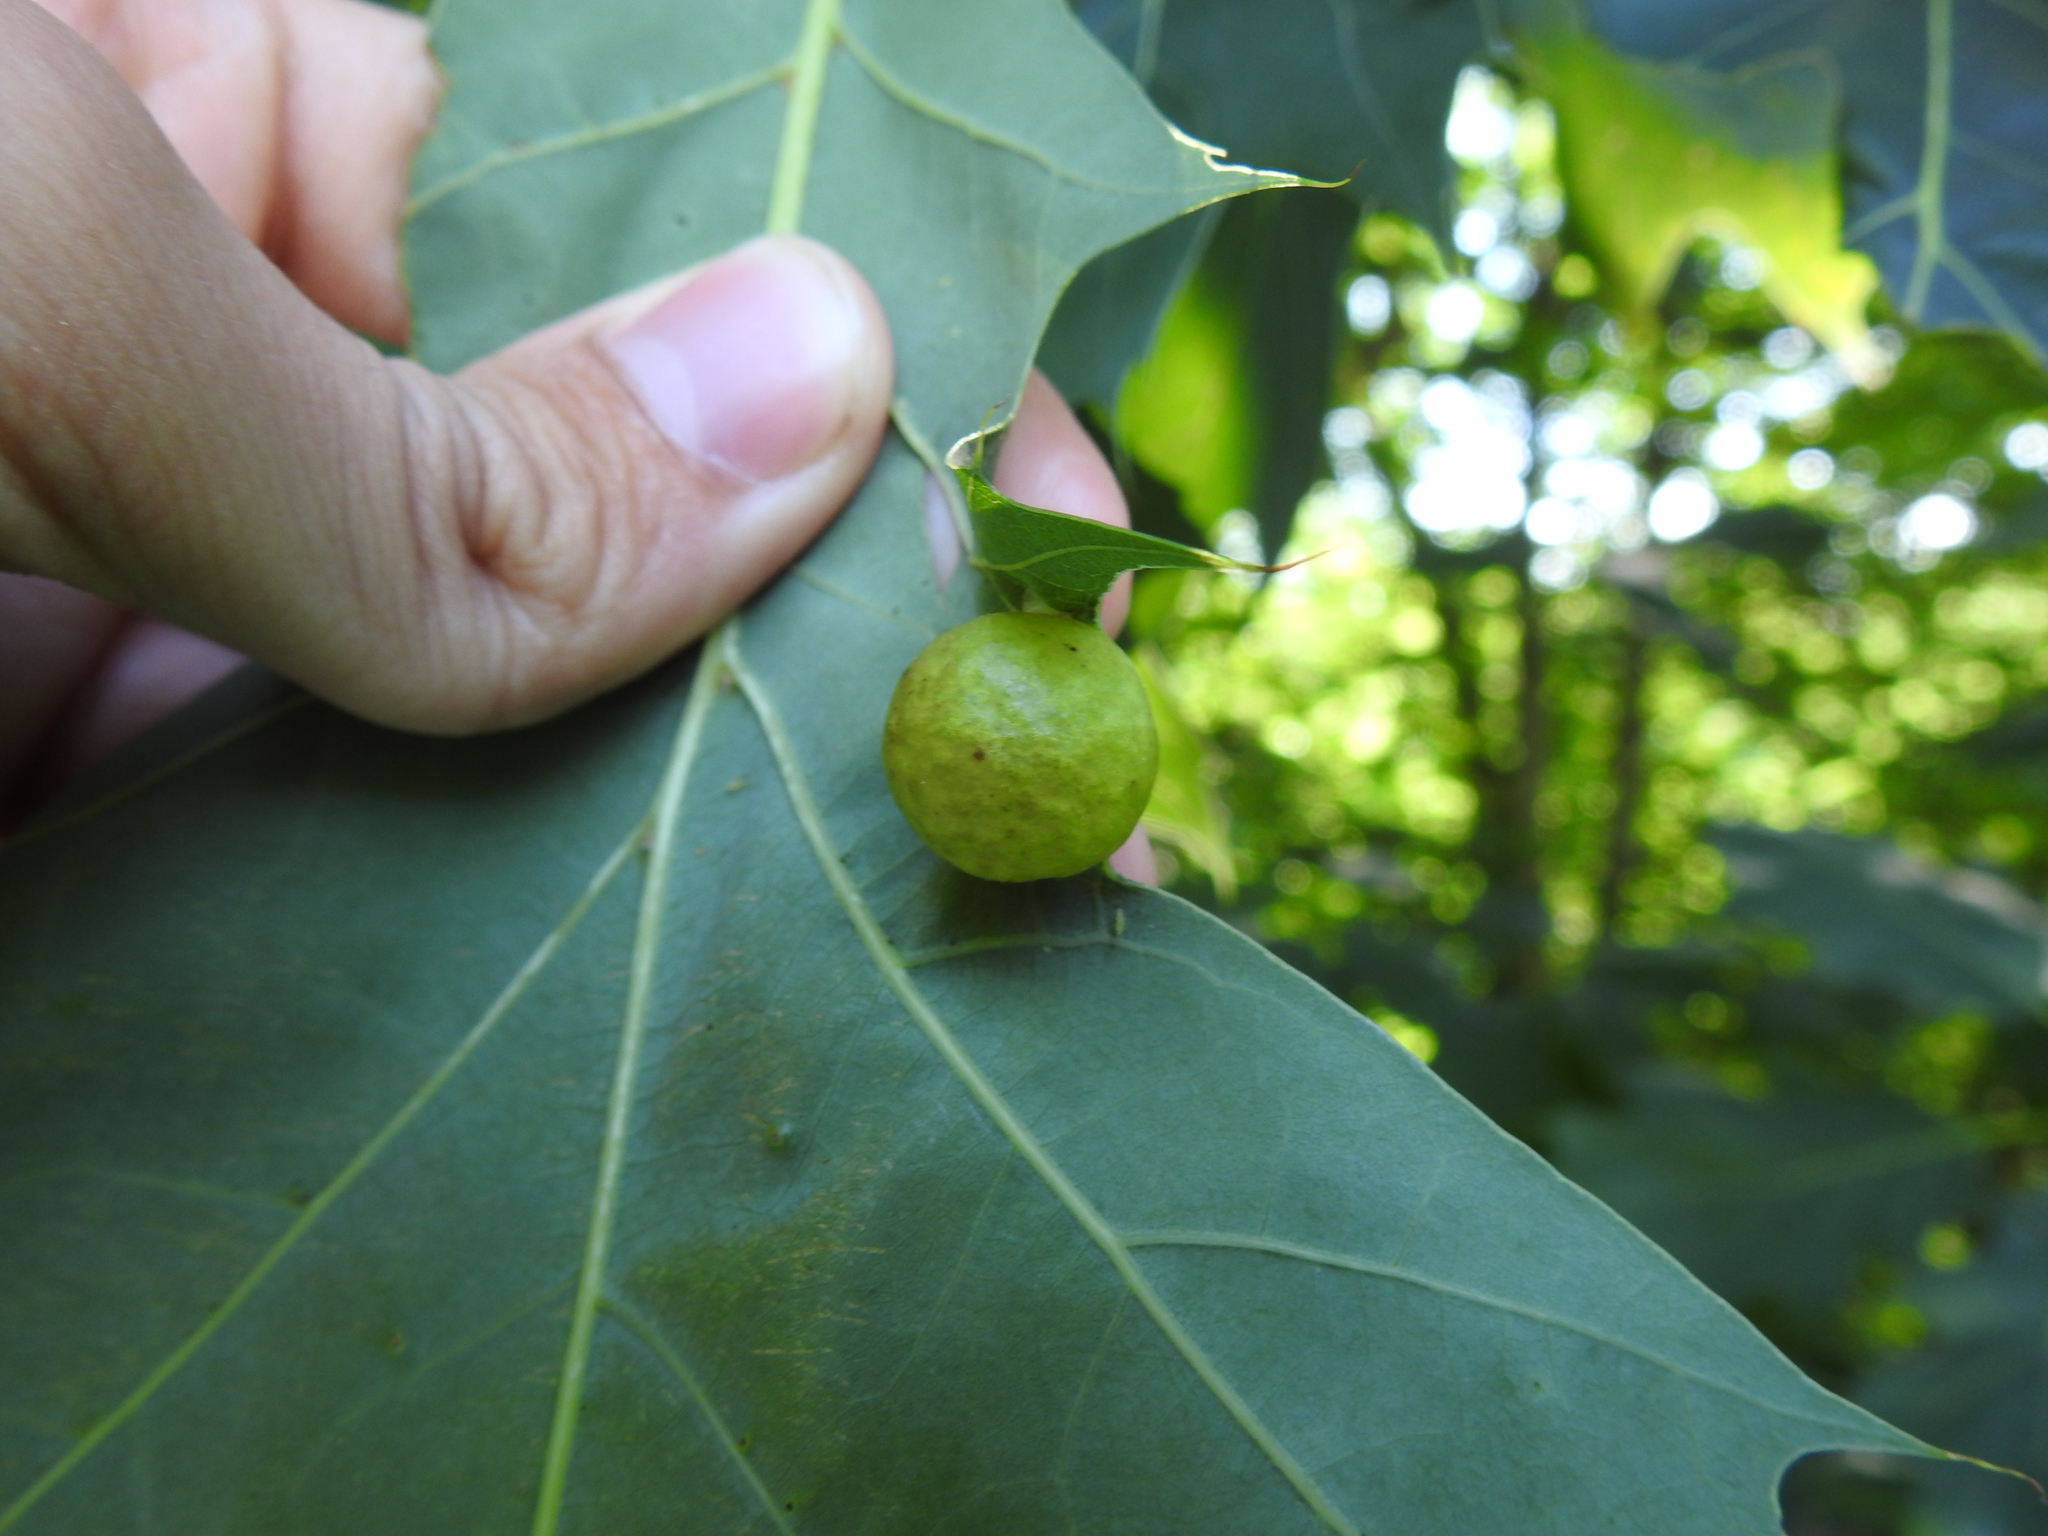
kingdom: Animalia
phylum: Arthropoda
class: Insecta
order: Hymenoptera
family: Cynipidae
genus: Amphibolips
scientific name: Amphibolips
